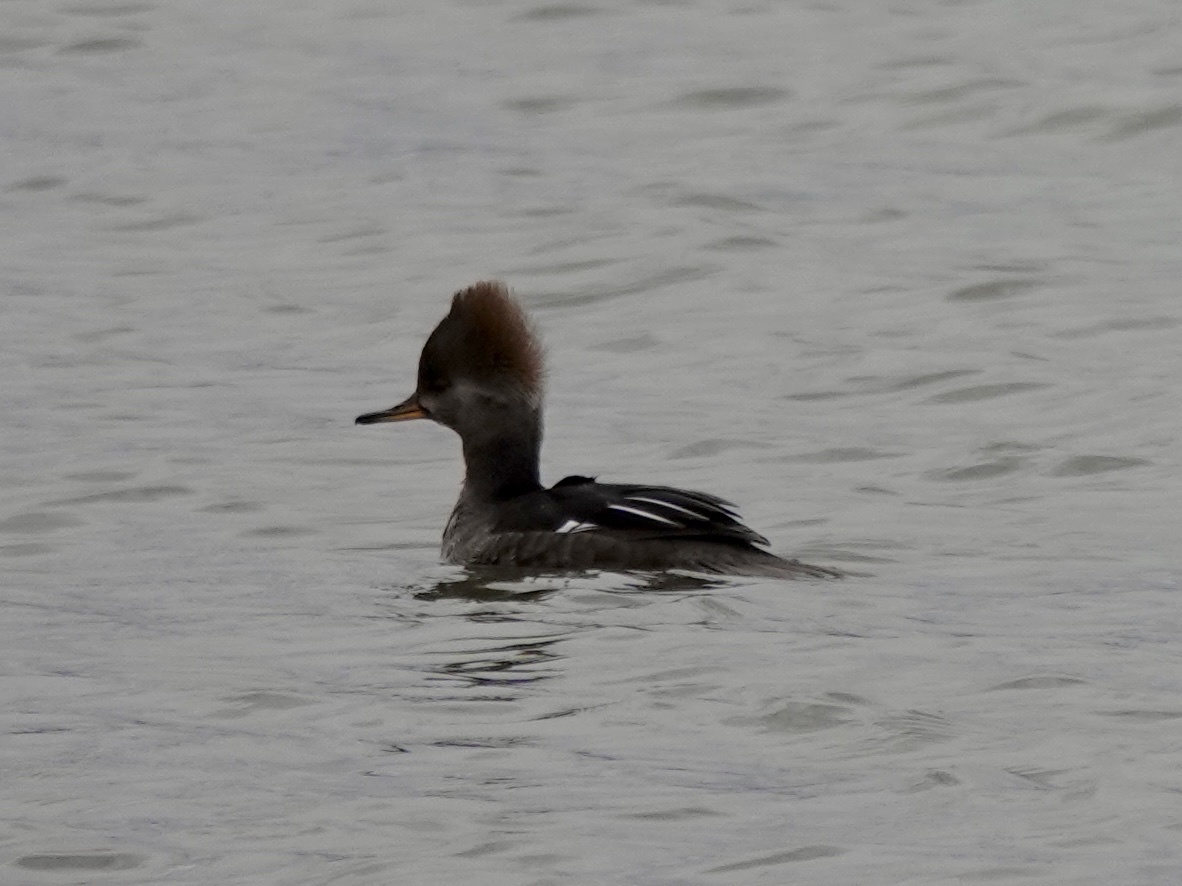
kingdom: Animalia
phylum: Chordata
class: Aves
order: Anseriformes
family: Anatidae
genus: Lophodytes
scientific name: Lophodytes cucullatus
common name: Hooded merganser
